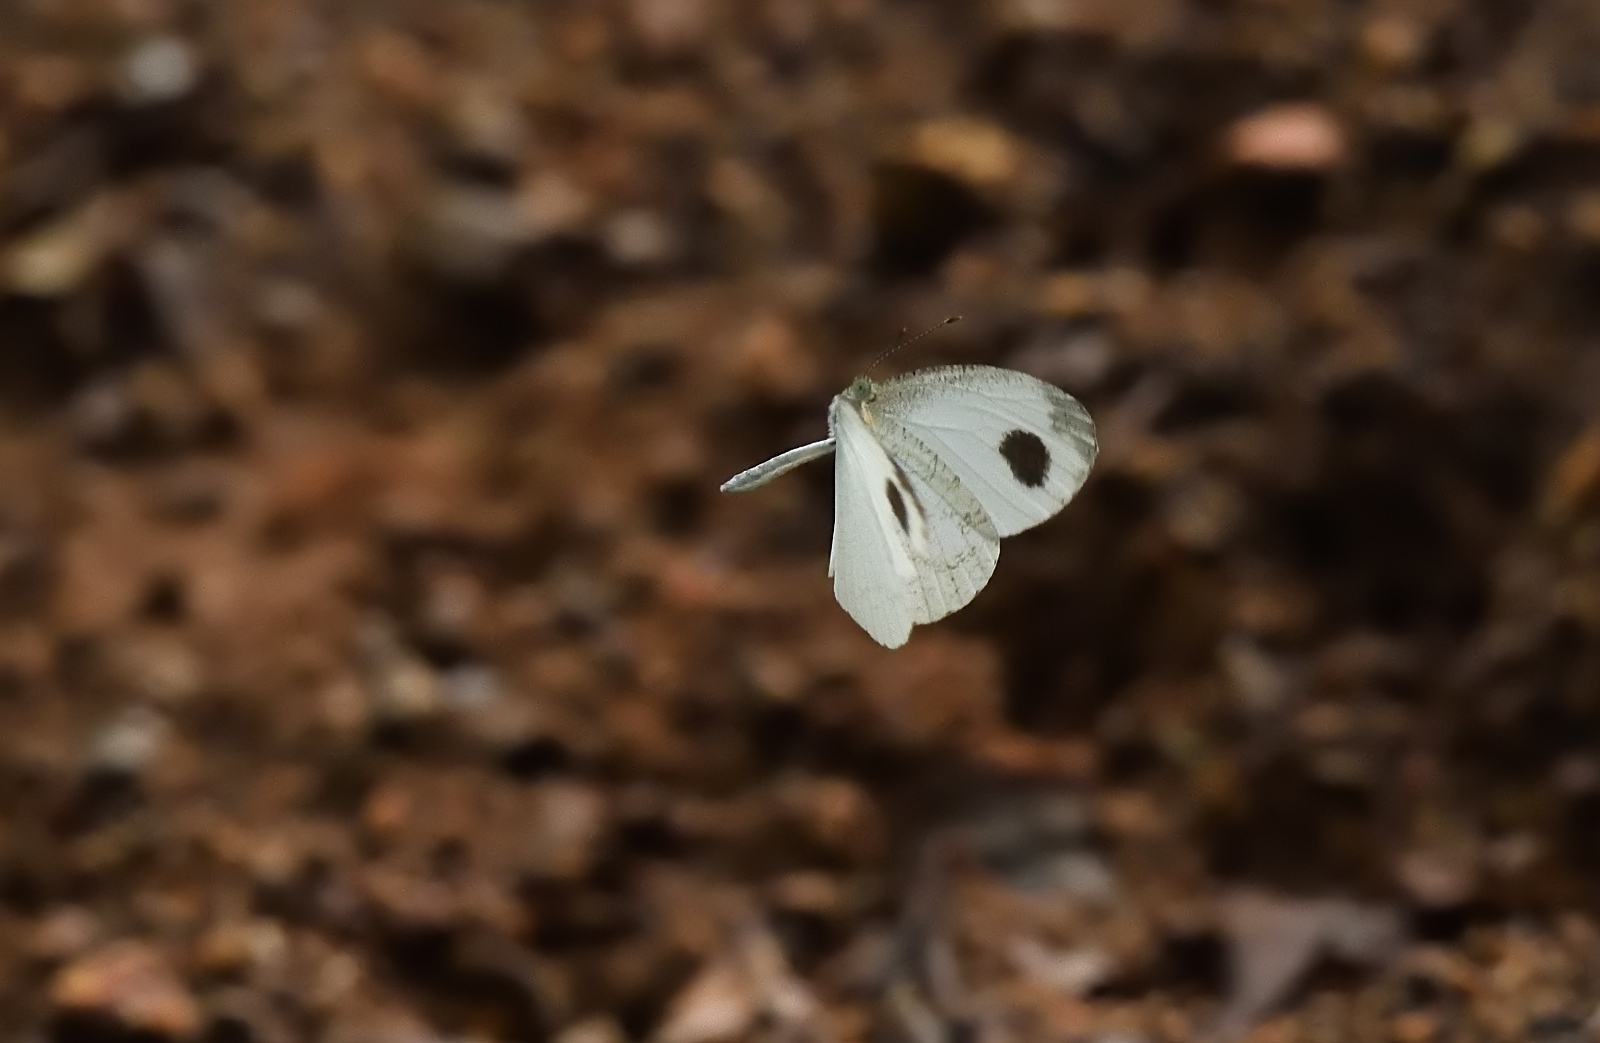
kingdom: Animalia
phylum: Arthropoda
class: Insecta
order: Lepidoptera
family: Pieridae
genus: Leptosia
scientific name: Leptosia nina
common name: Psyche
